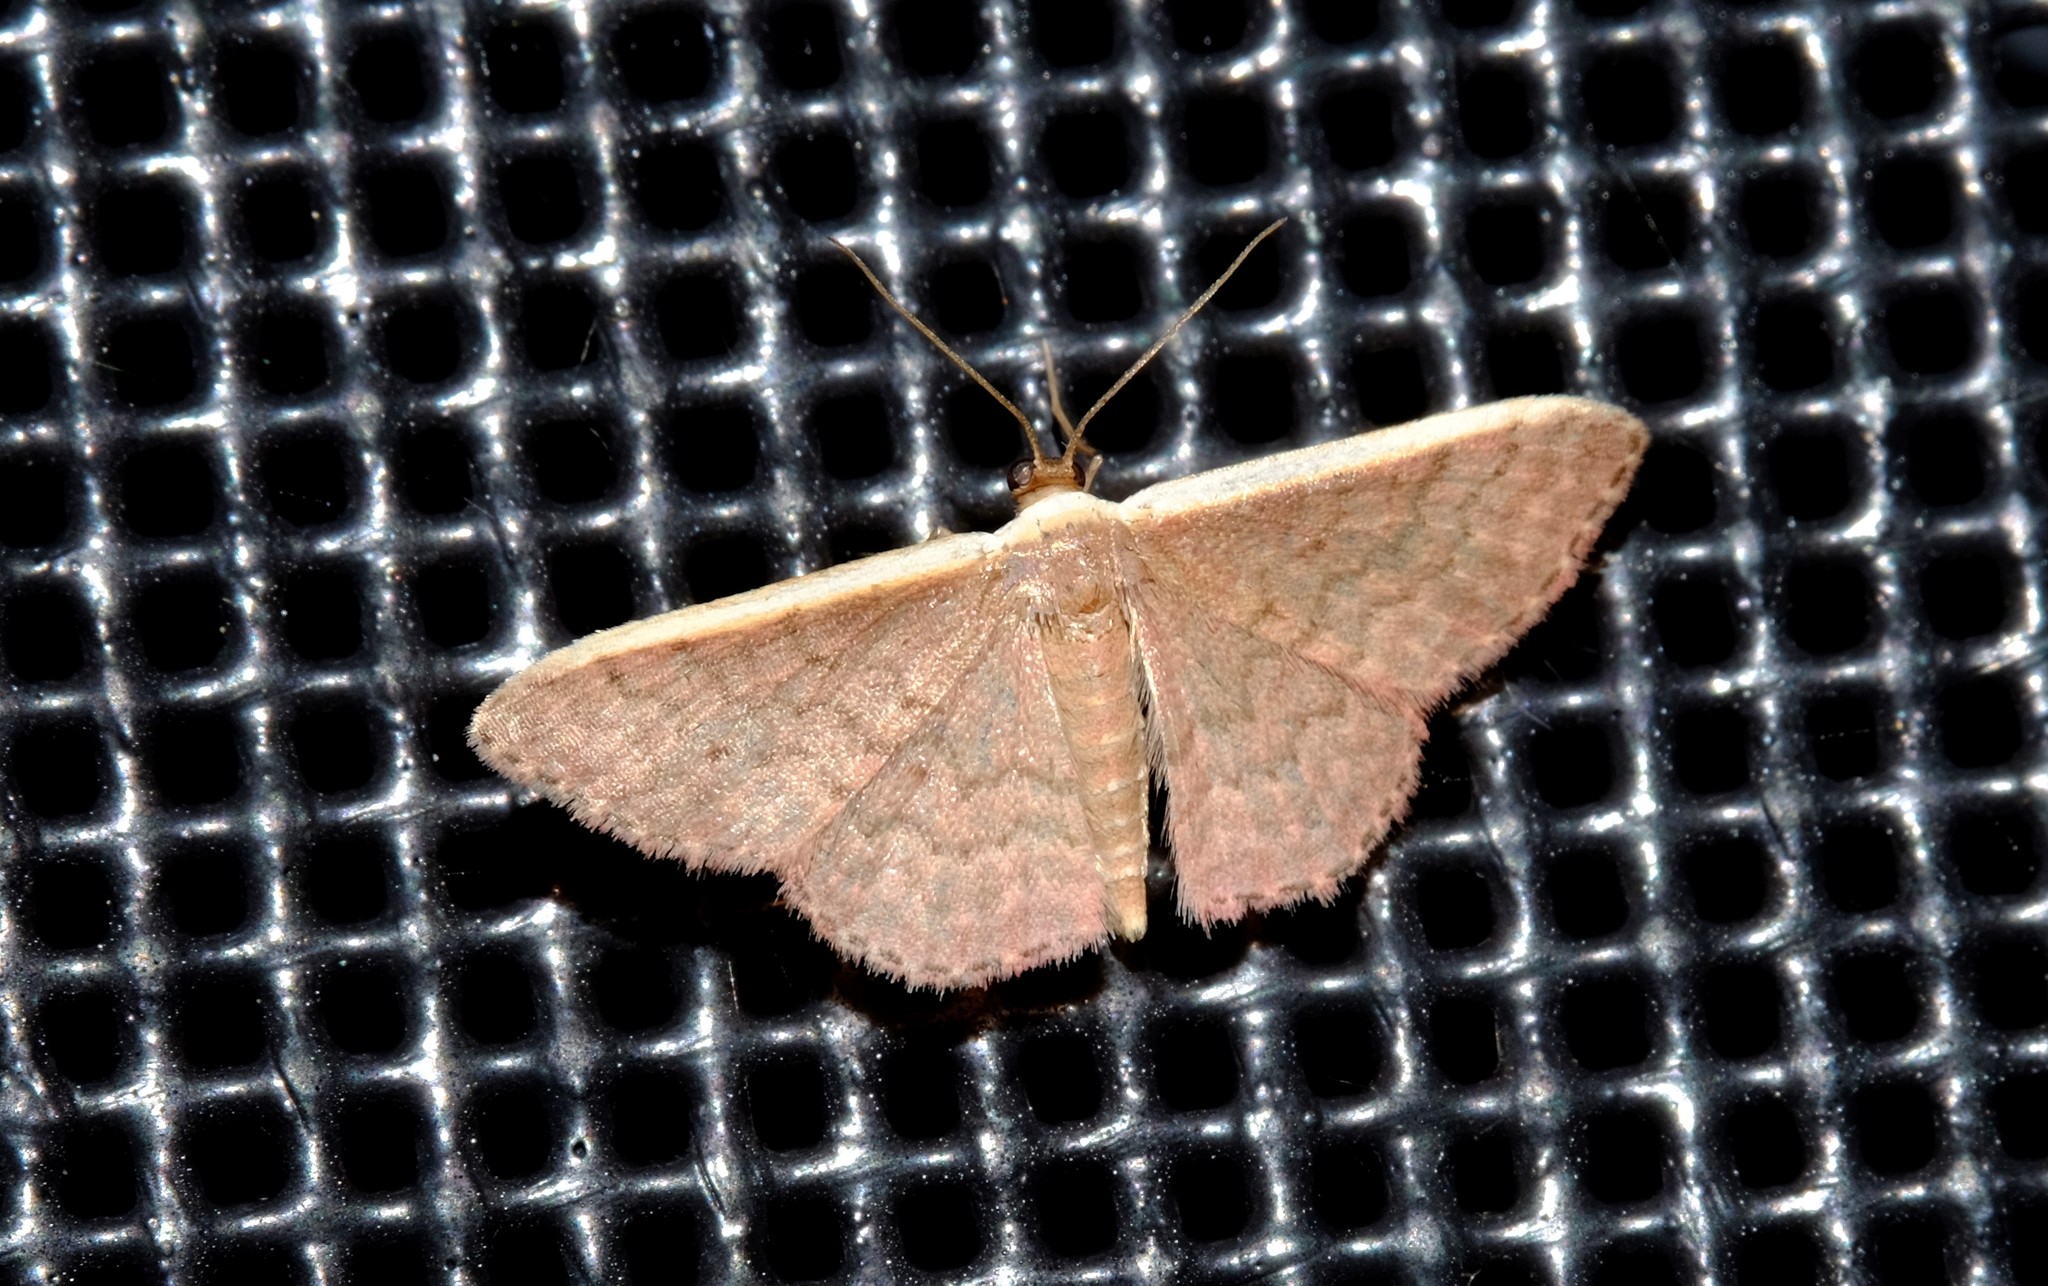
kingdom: Animalia
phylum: Arthropoda
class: Insecta
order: Lepidoptera
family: Geometridae
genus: Idaea
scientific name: Idaea inversata
